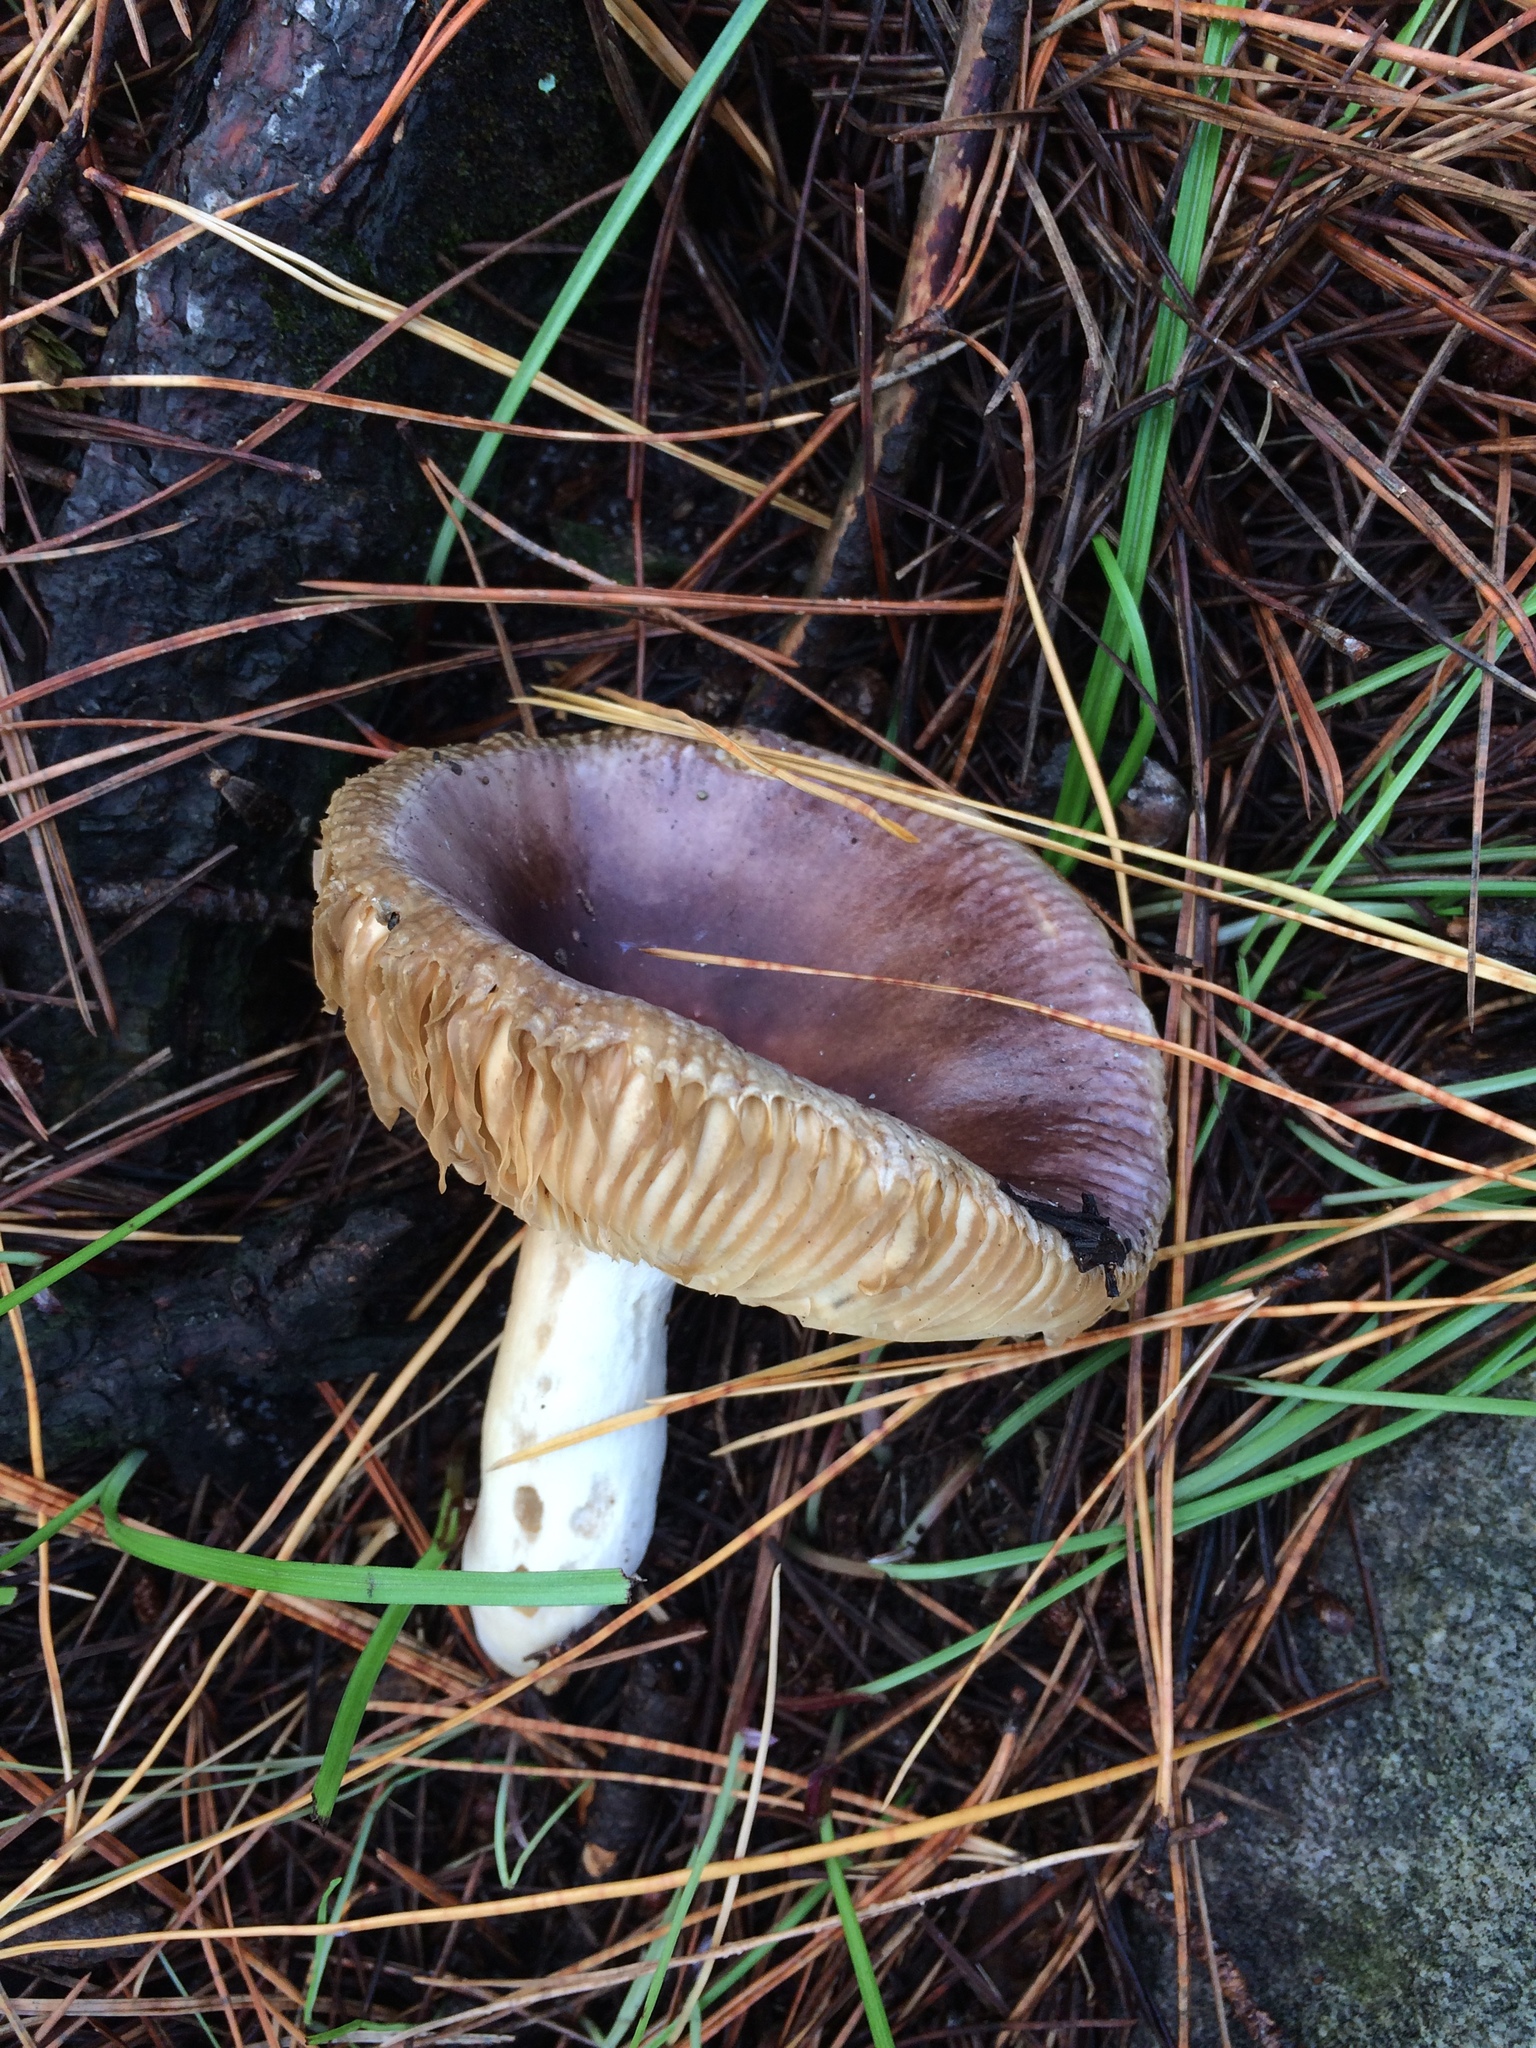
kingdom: Fungi
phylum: Basidiomycota
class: Agaricomycetes
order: Russulales
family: Russulaceae
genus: Russula
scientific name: Russula capensis
